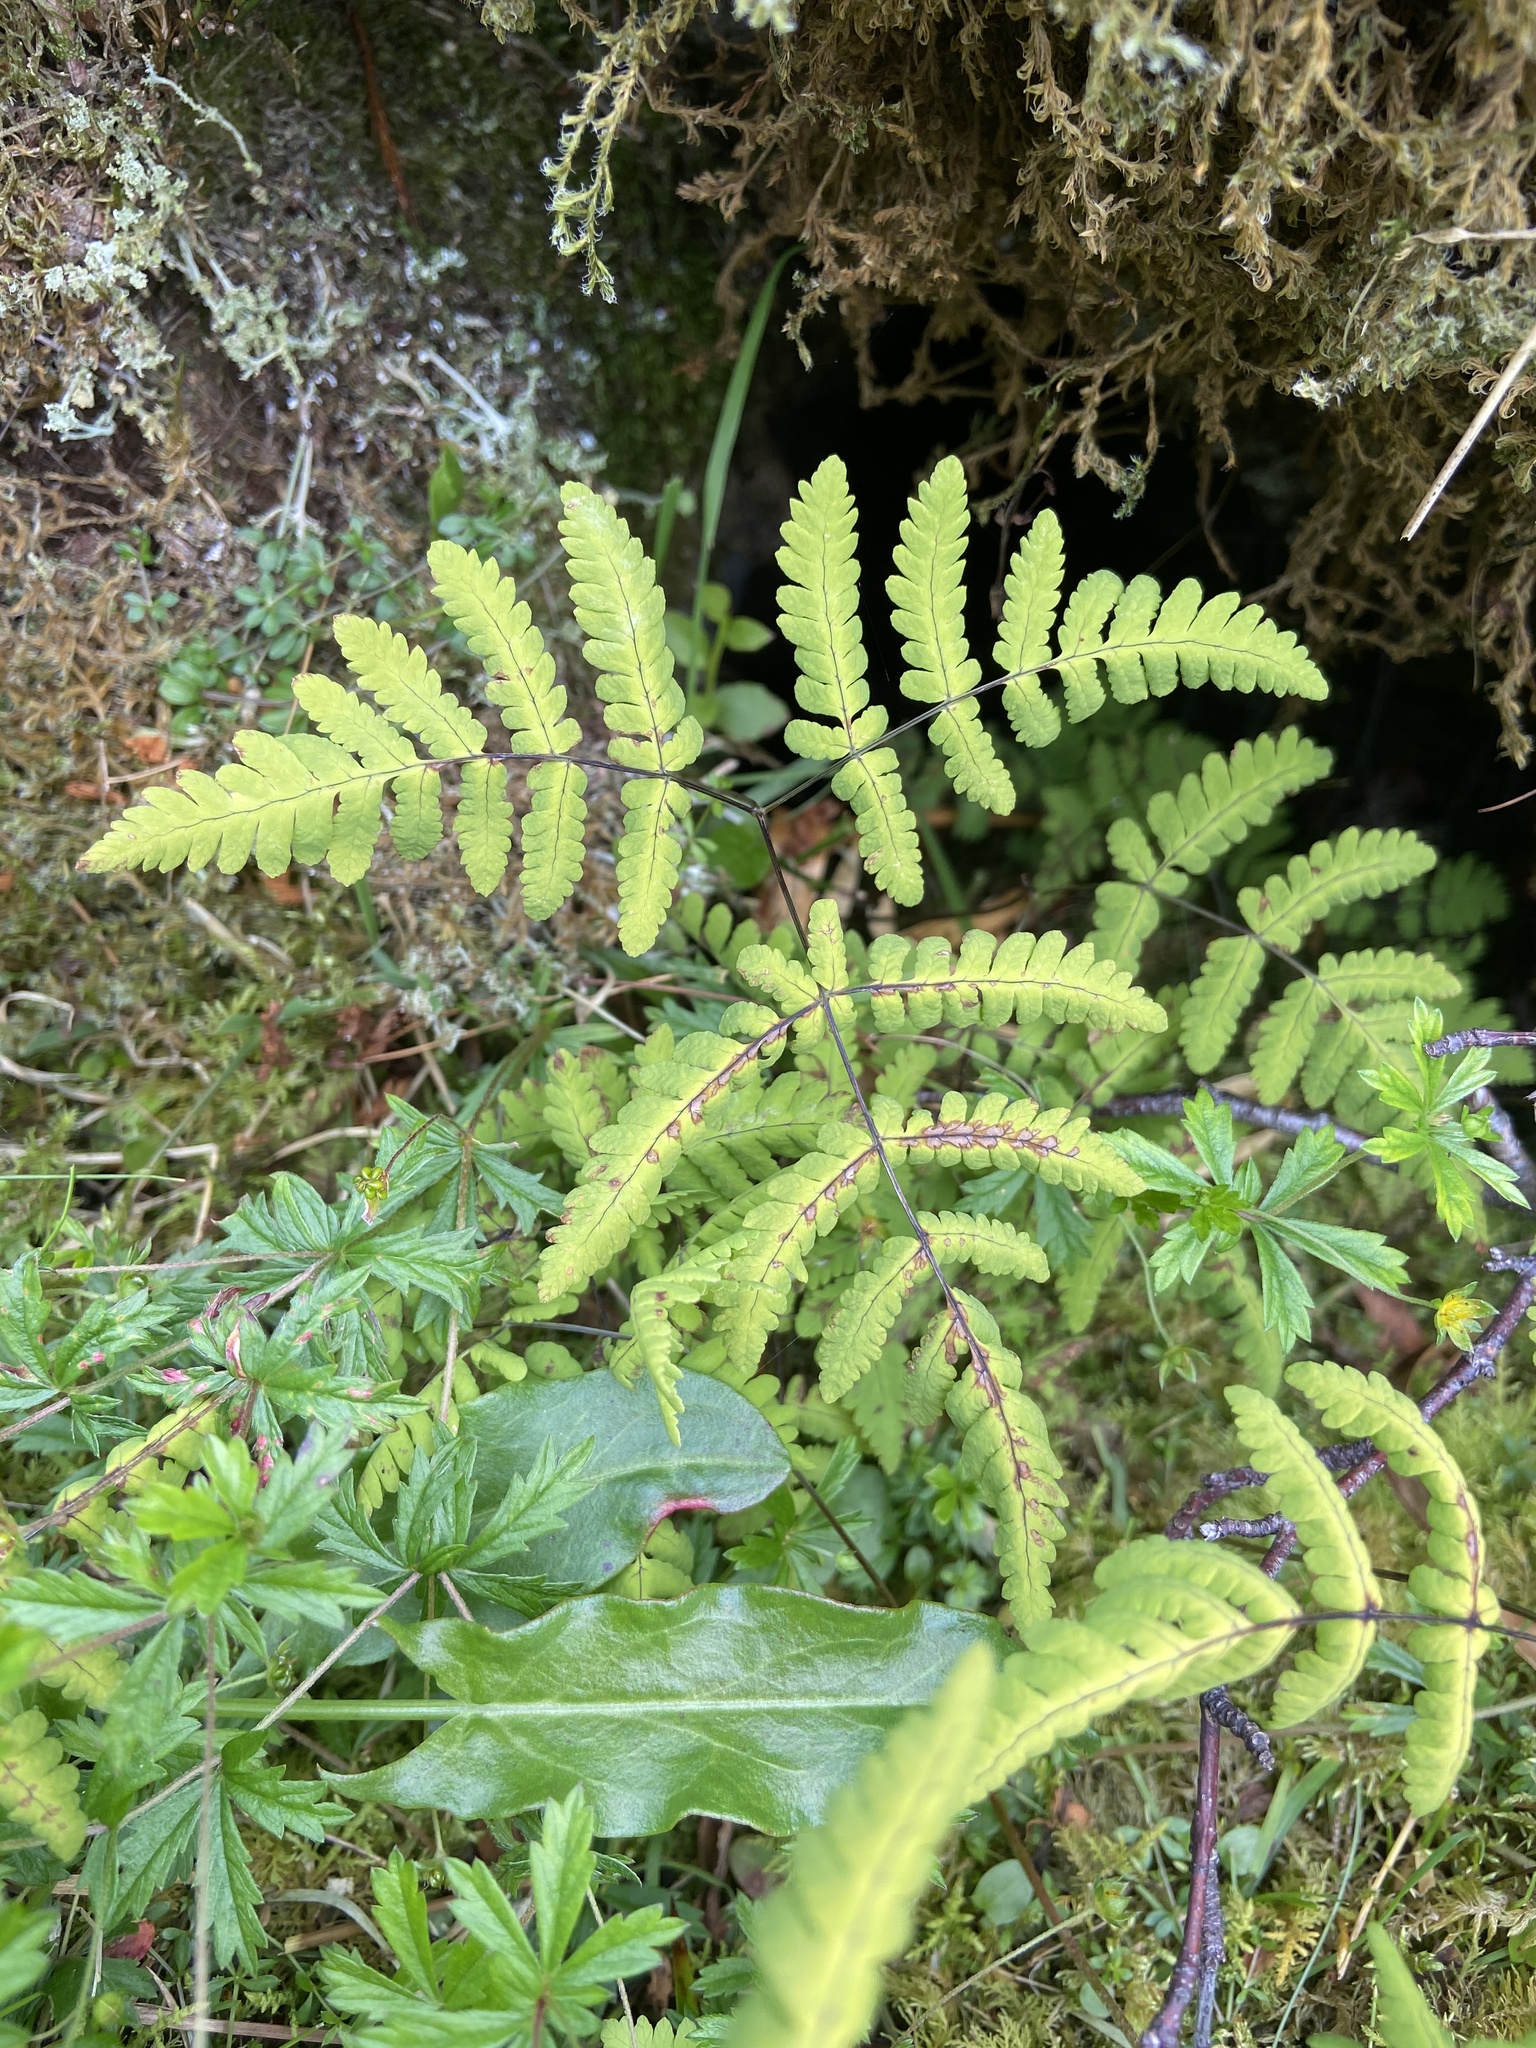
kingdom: Plantae
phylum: Tracheophyta
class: Polypodiopsida
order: Polypodiales
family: Cystopteridaceae
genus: Gymnocarpium
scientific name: Gymnocarpium dryopteris
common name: Oak fern
